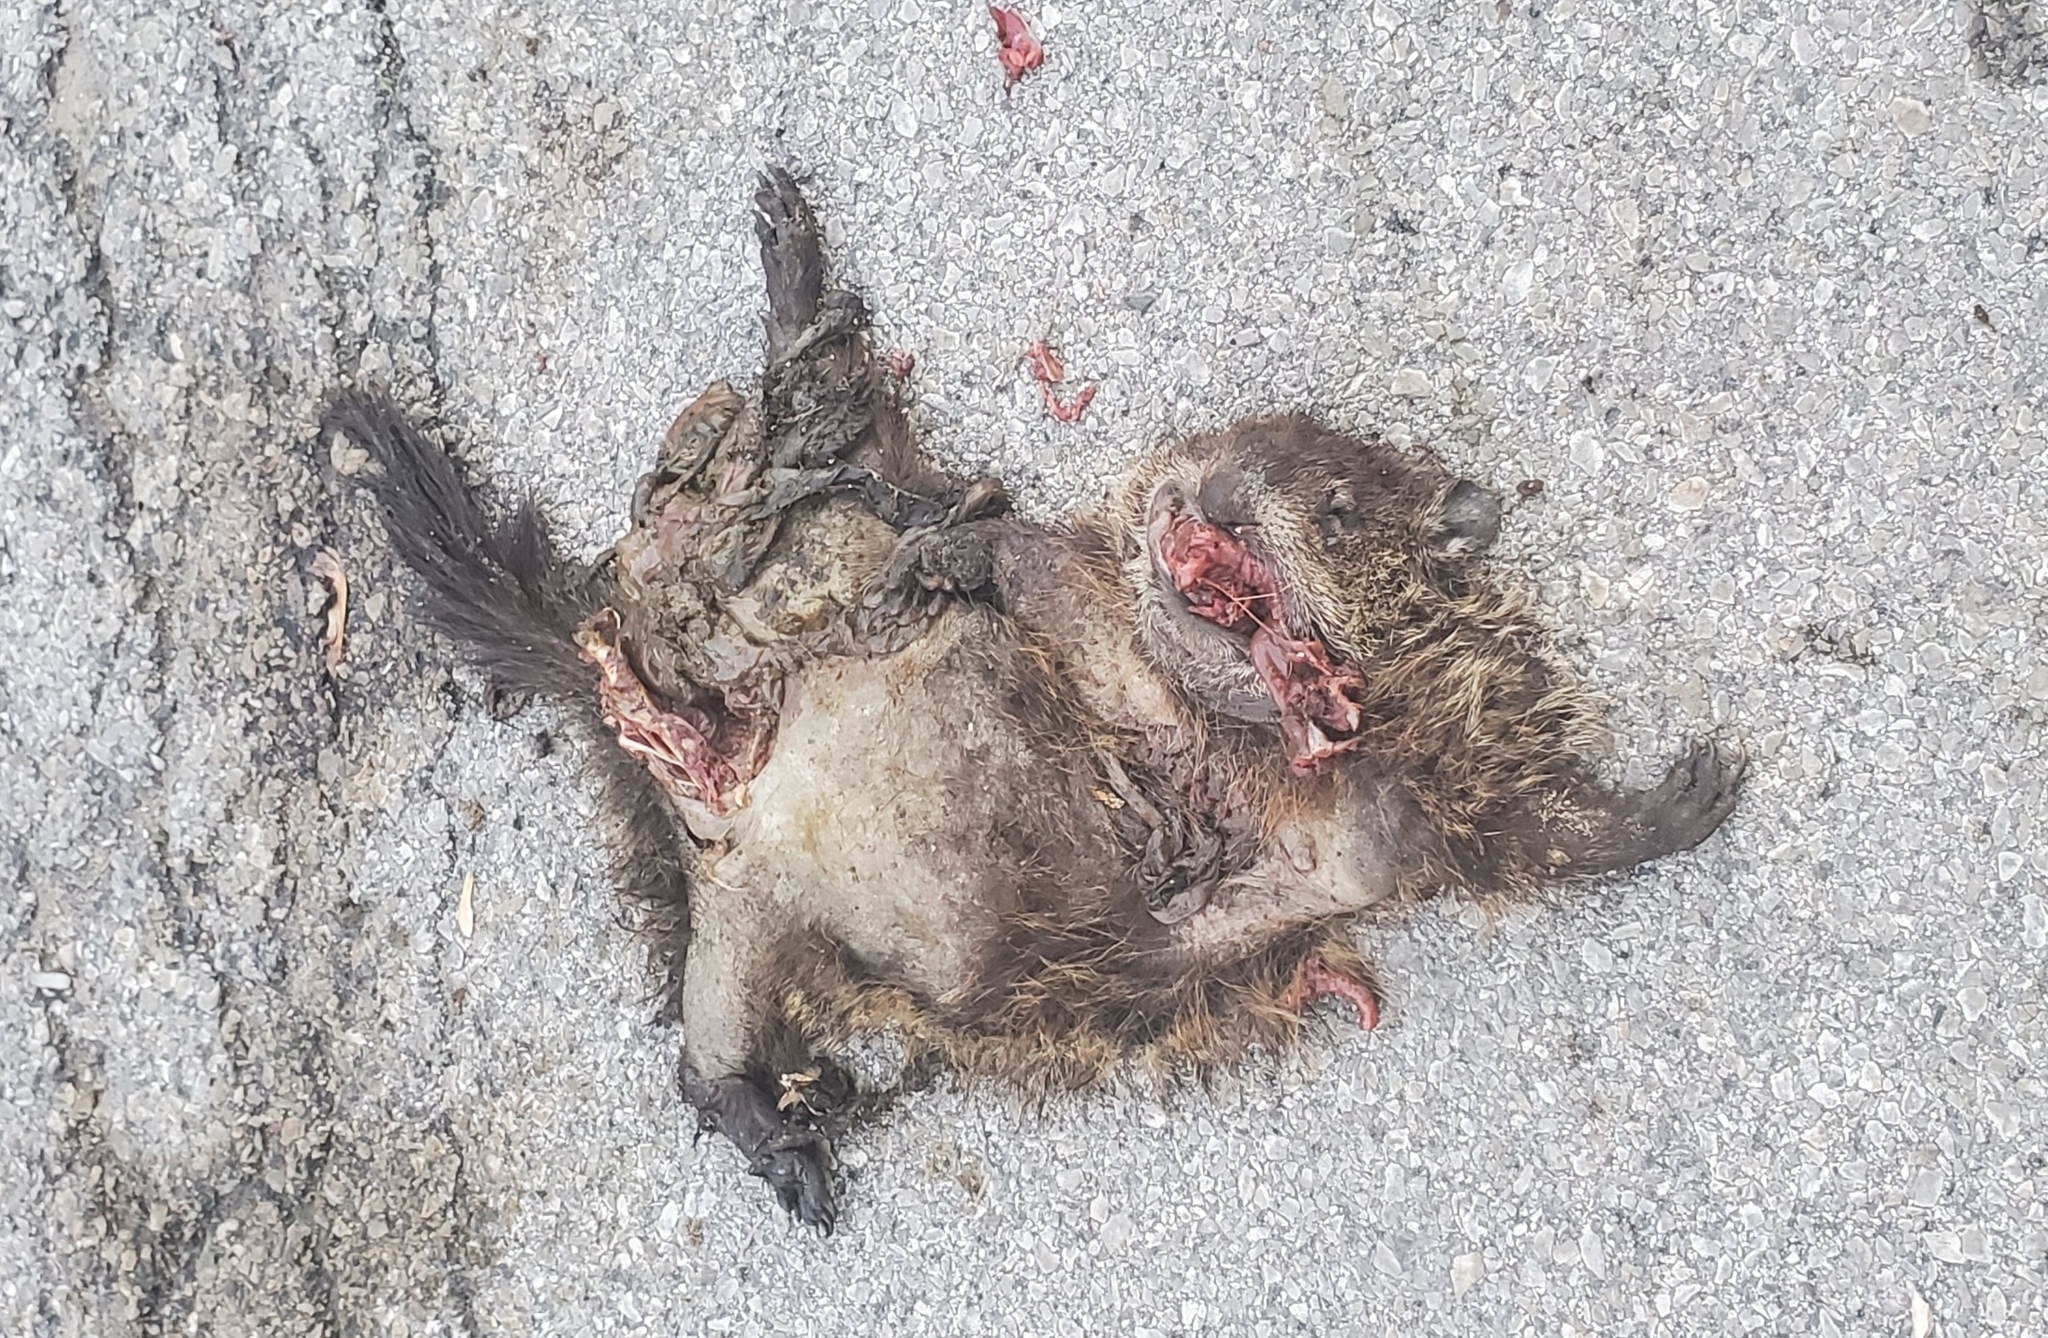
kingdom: Animalia
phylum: Chordata
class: Mammalia
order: Rodentia
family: Sciuridae
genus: Marmota
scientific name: Marmota monax
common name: Groundhog
